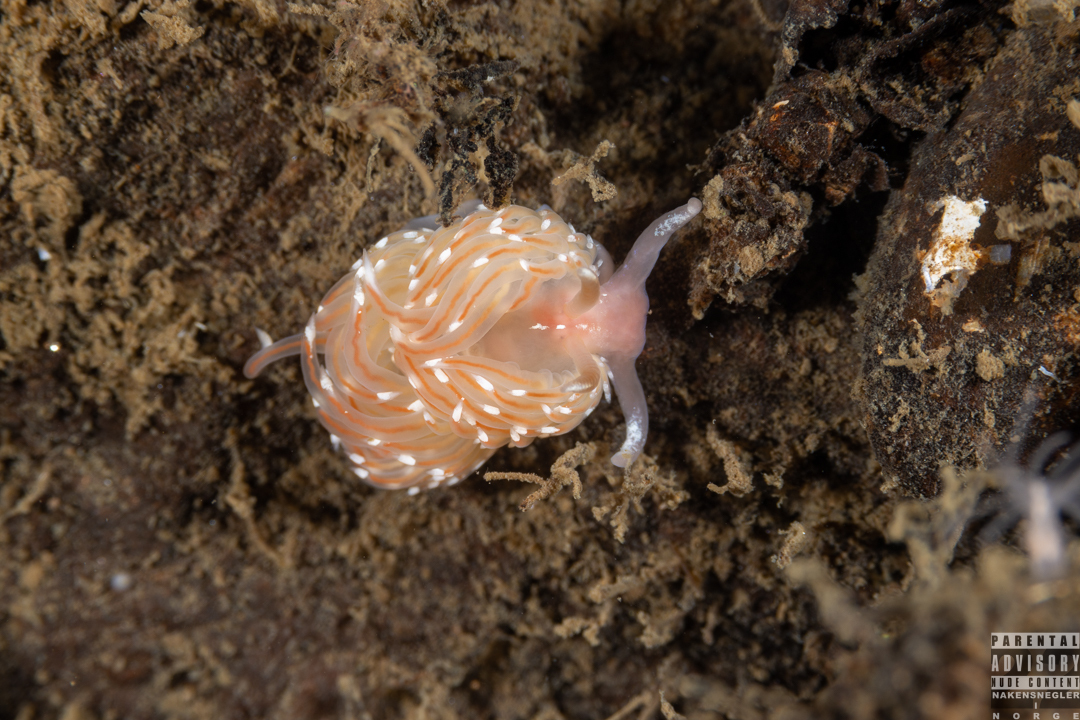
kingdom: Animalia
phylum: Mollusca
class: Gastropoda
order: Nudibranchia
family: Facelinidae
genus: Facelina
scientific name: Facelina bostoniensis
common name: Boston facelina
